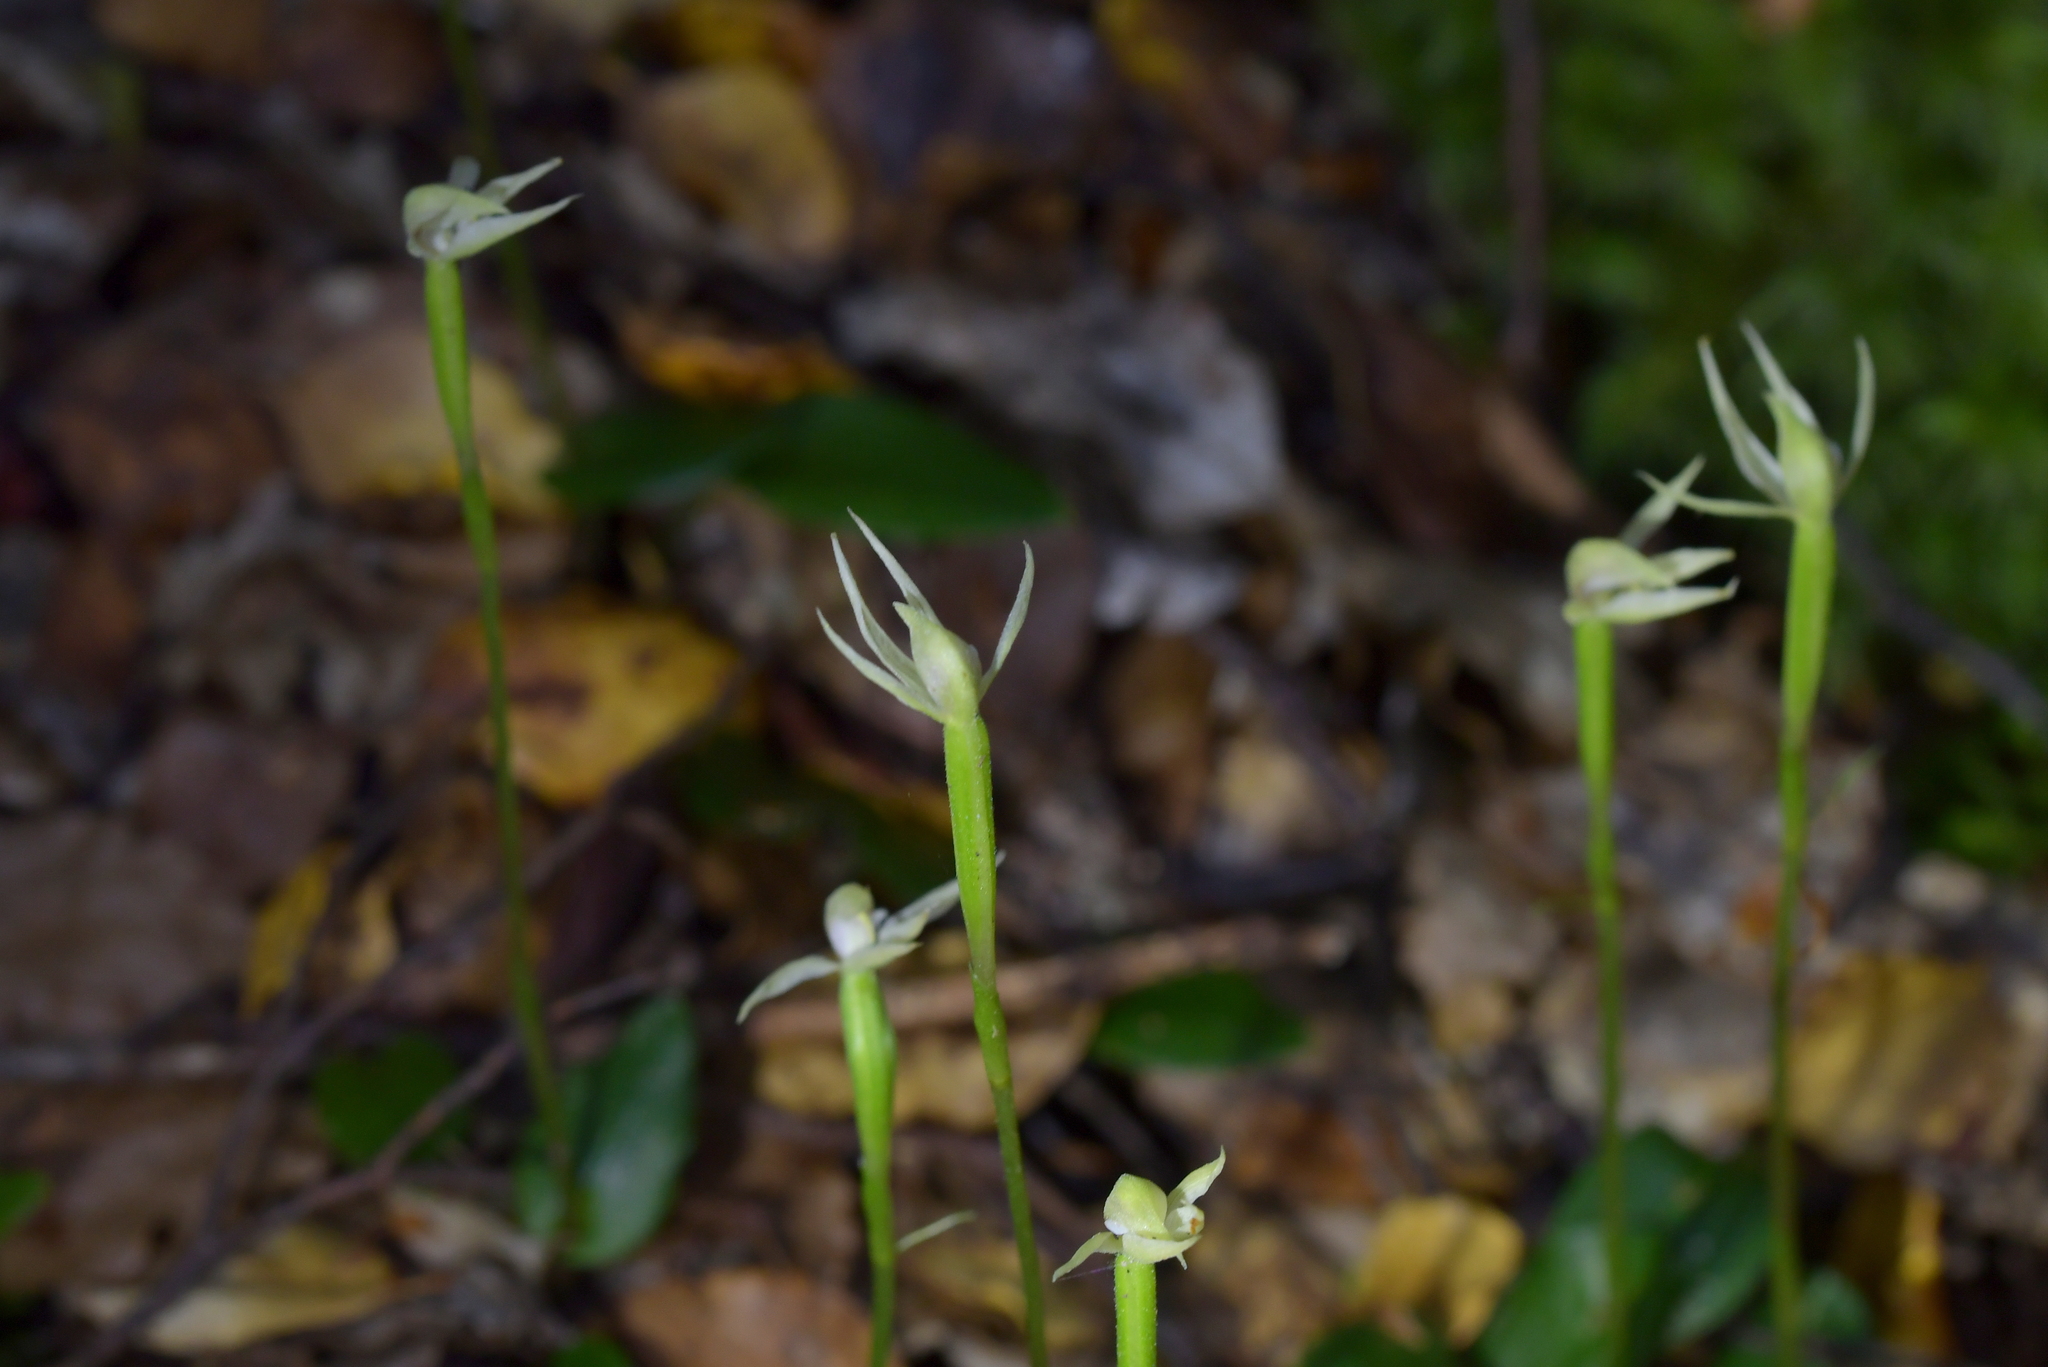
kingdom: Plantae
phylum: Tracheophyta
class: Liliopsida
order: Asparagales
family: Orchidaceae
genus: Adenochilus
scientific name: Adenochilus gracilis
